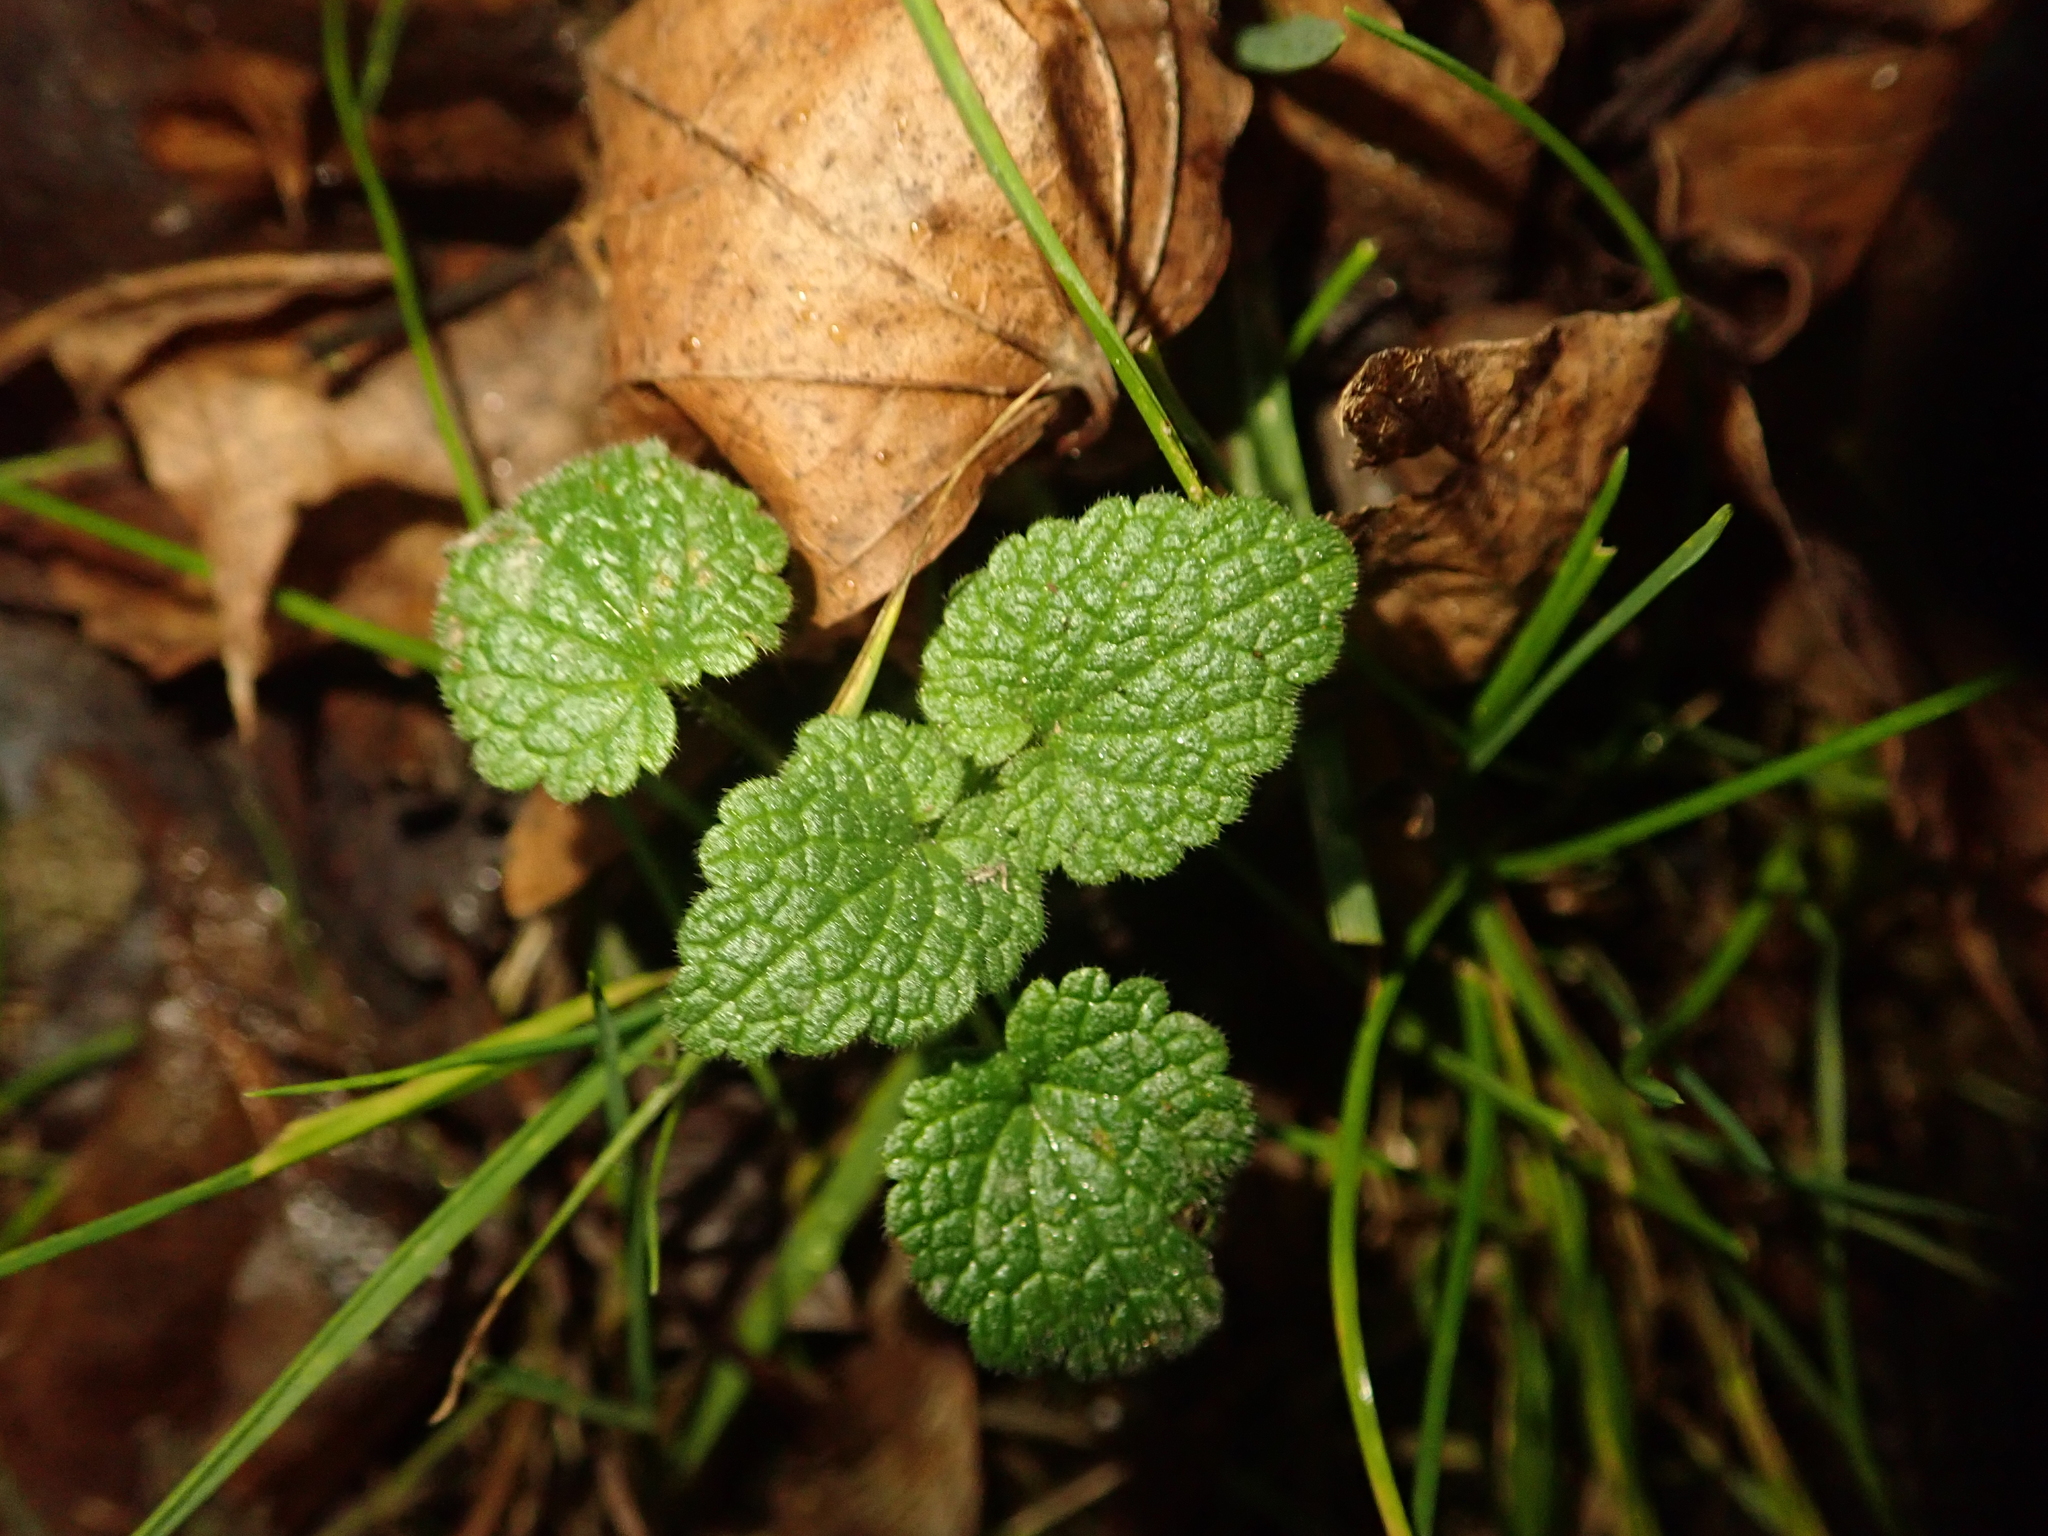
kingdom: Plantae
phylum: Tracheophyta
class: Magnoliopsida
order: Lamiales
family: Lamiaceae
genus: Lamium
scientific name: Lamium purpureum
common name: Red dead-nettle
